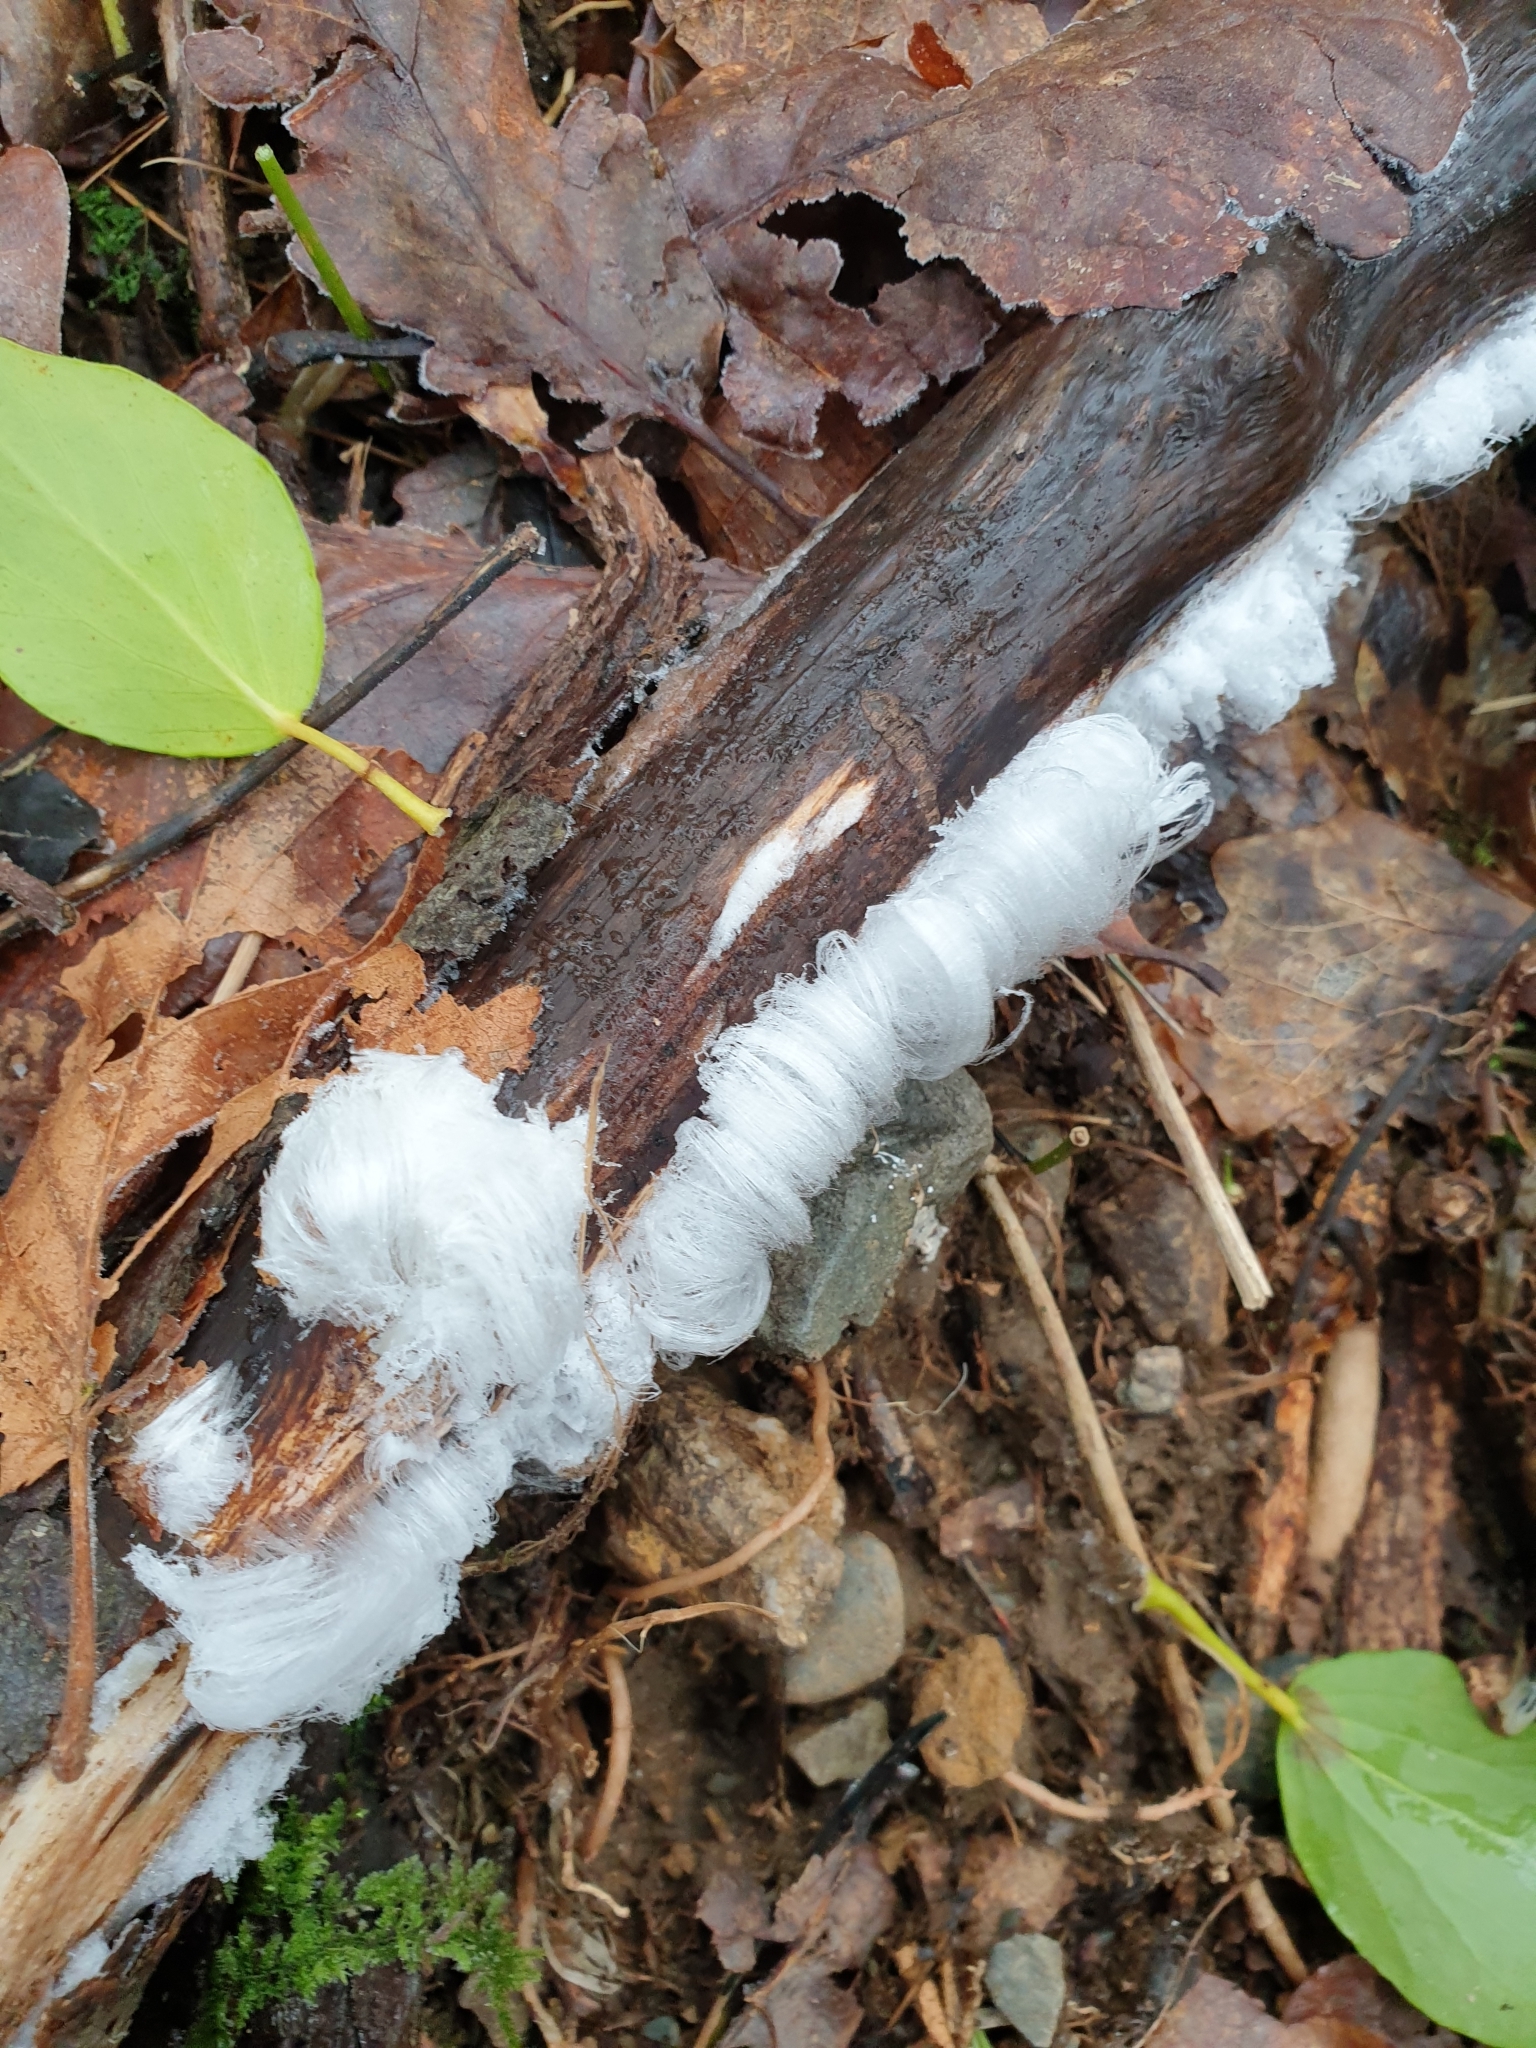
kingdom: Fungi
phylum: Basidiomycota
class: Agaricomycetes
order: Auriculariales
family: Auriculariaceae
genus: Exidiopsis
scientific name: Exidiopsis effusa
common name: Hair ice crust
